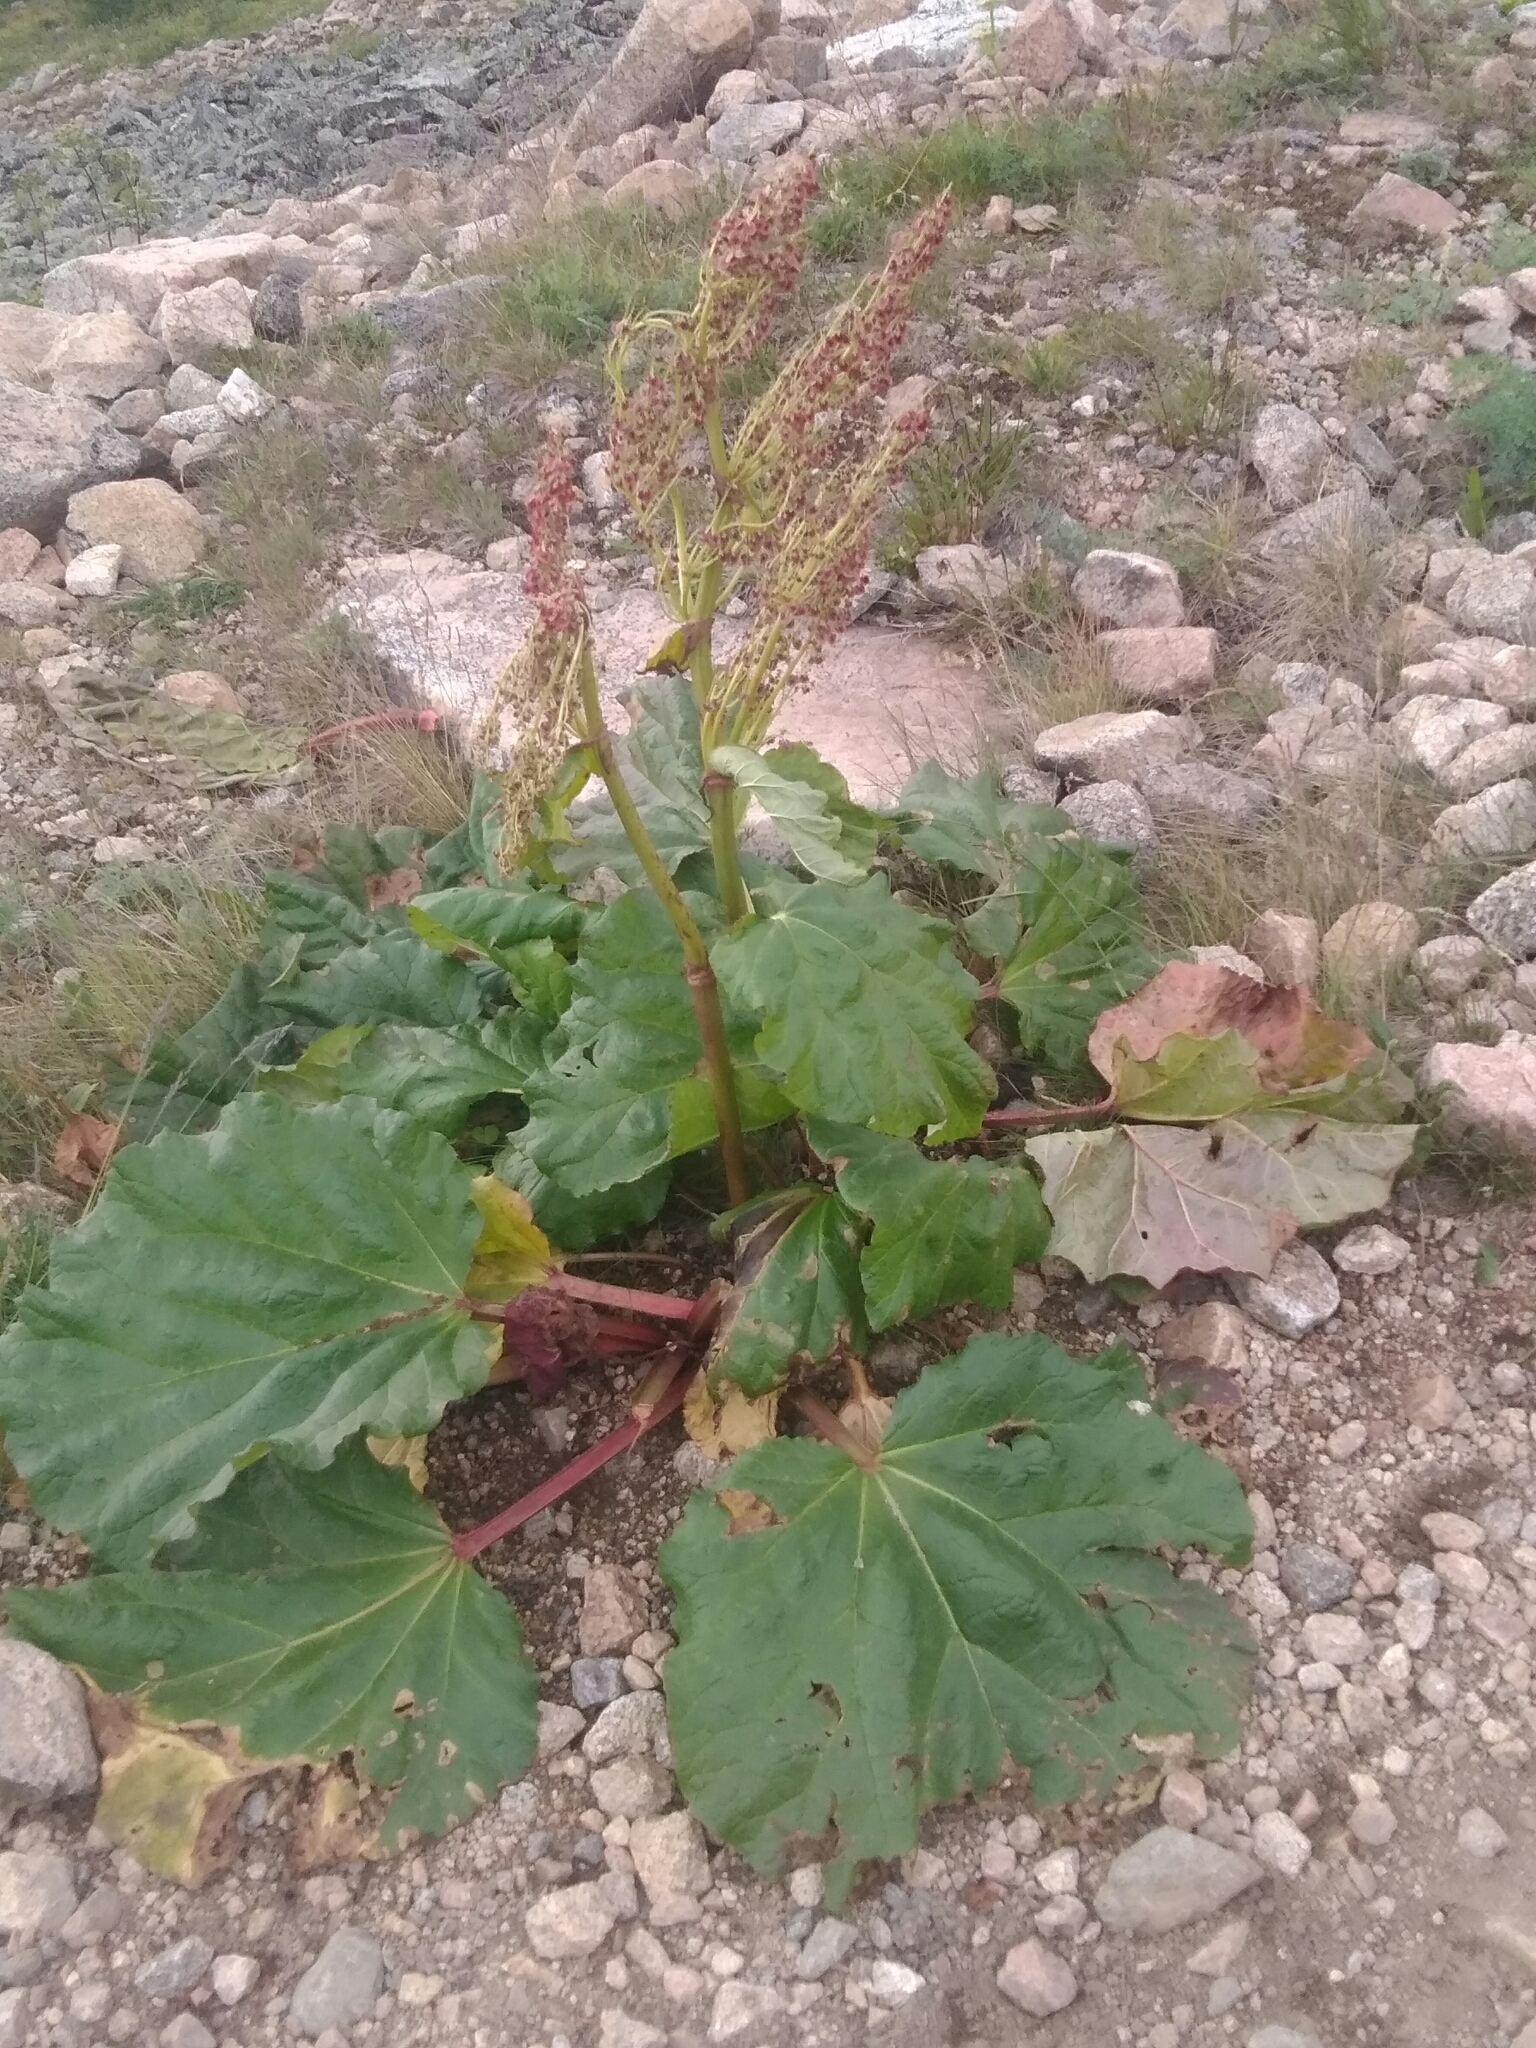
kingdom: Plantae
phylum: Tracheophyta
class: Magnoliopsida
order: Caryophyllales
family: Polygonaceae
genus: Rheum
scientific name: Rheum rhabarbarum
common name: Garden rhubarb
